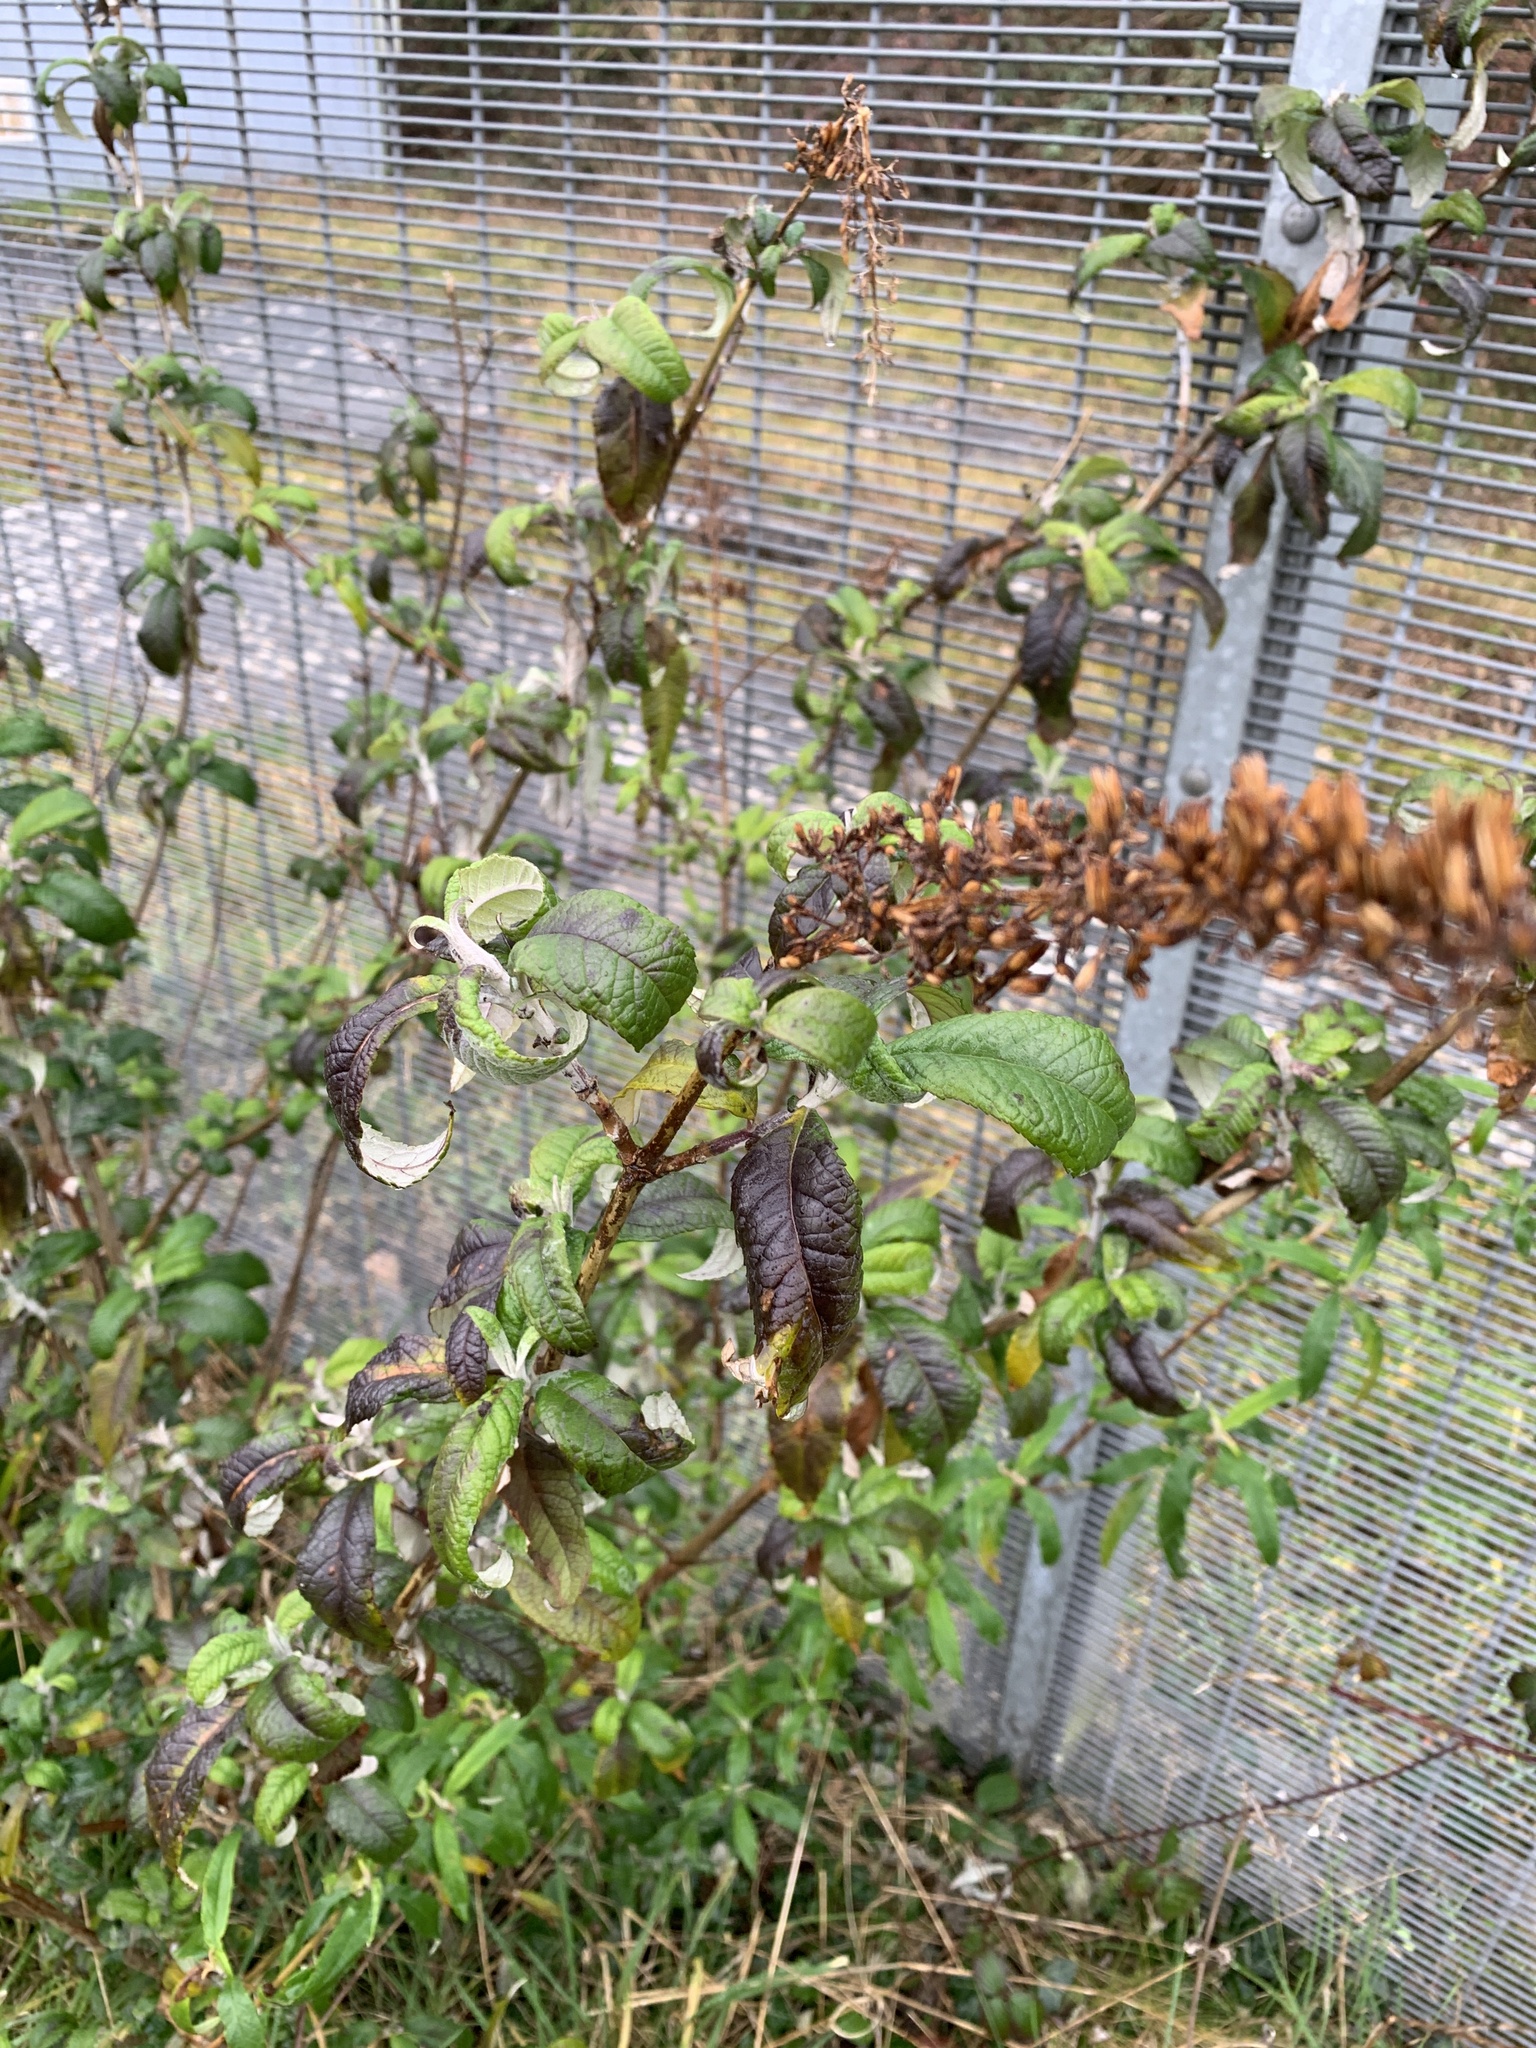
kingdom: Plantae
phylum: Tracheophyta
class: Magnoliopsida
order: Lamiales
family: Scrophulariaceae
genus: Buddleja
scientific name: Buddleja davidii
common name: Butterfly-bush
